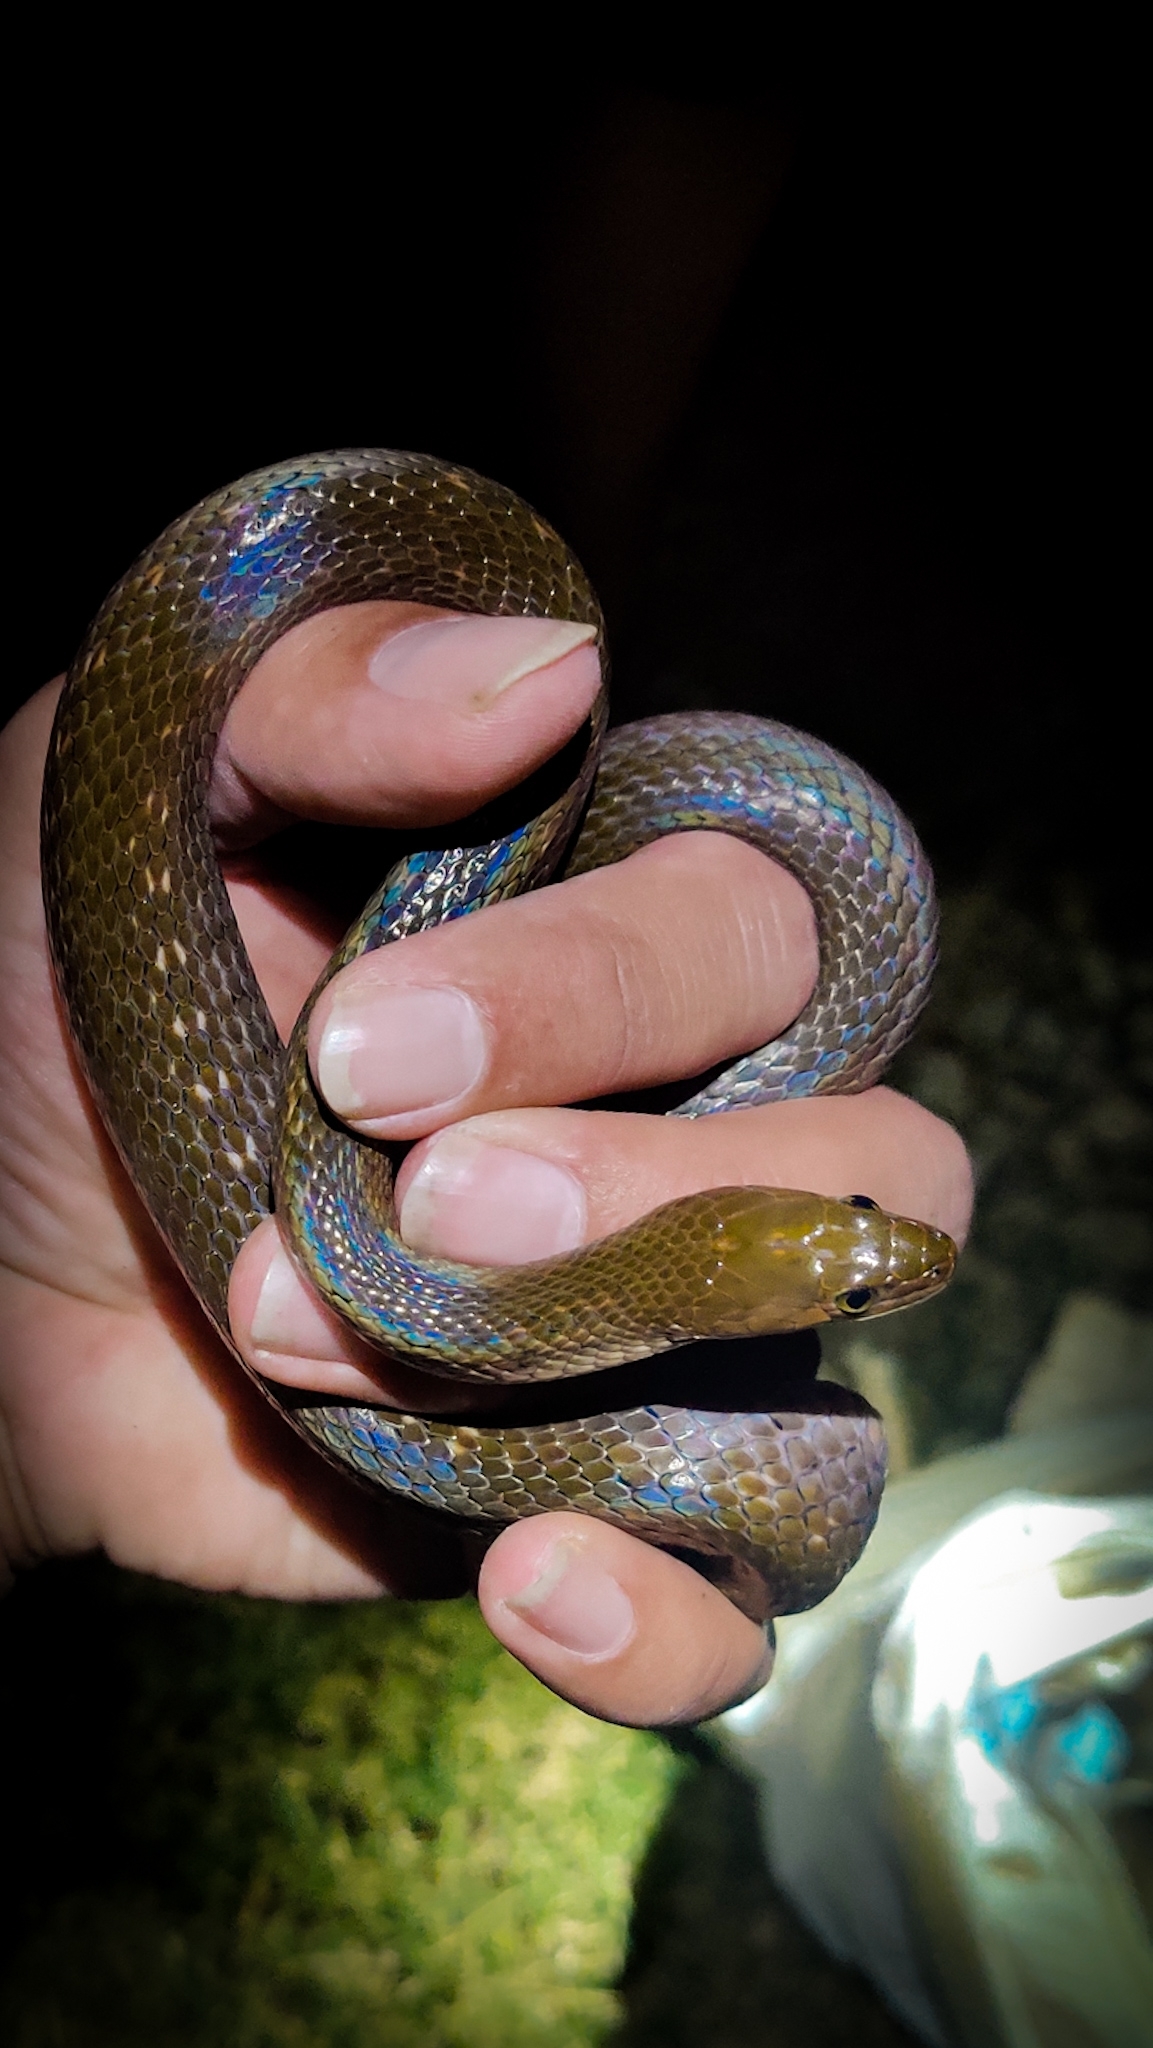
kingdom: Animalia
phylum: Chordata
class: Squamata
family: Colubridae
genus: Fowlea
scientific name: Fowlea piscator
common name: Asiatic water snake
